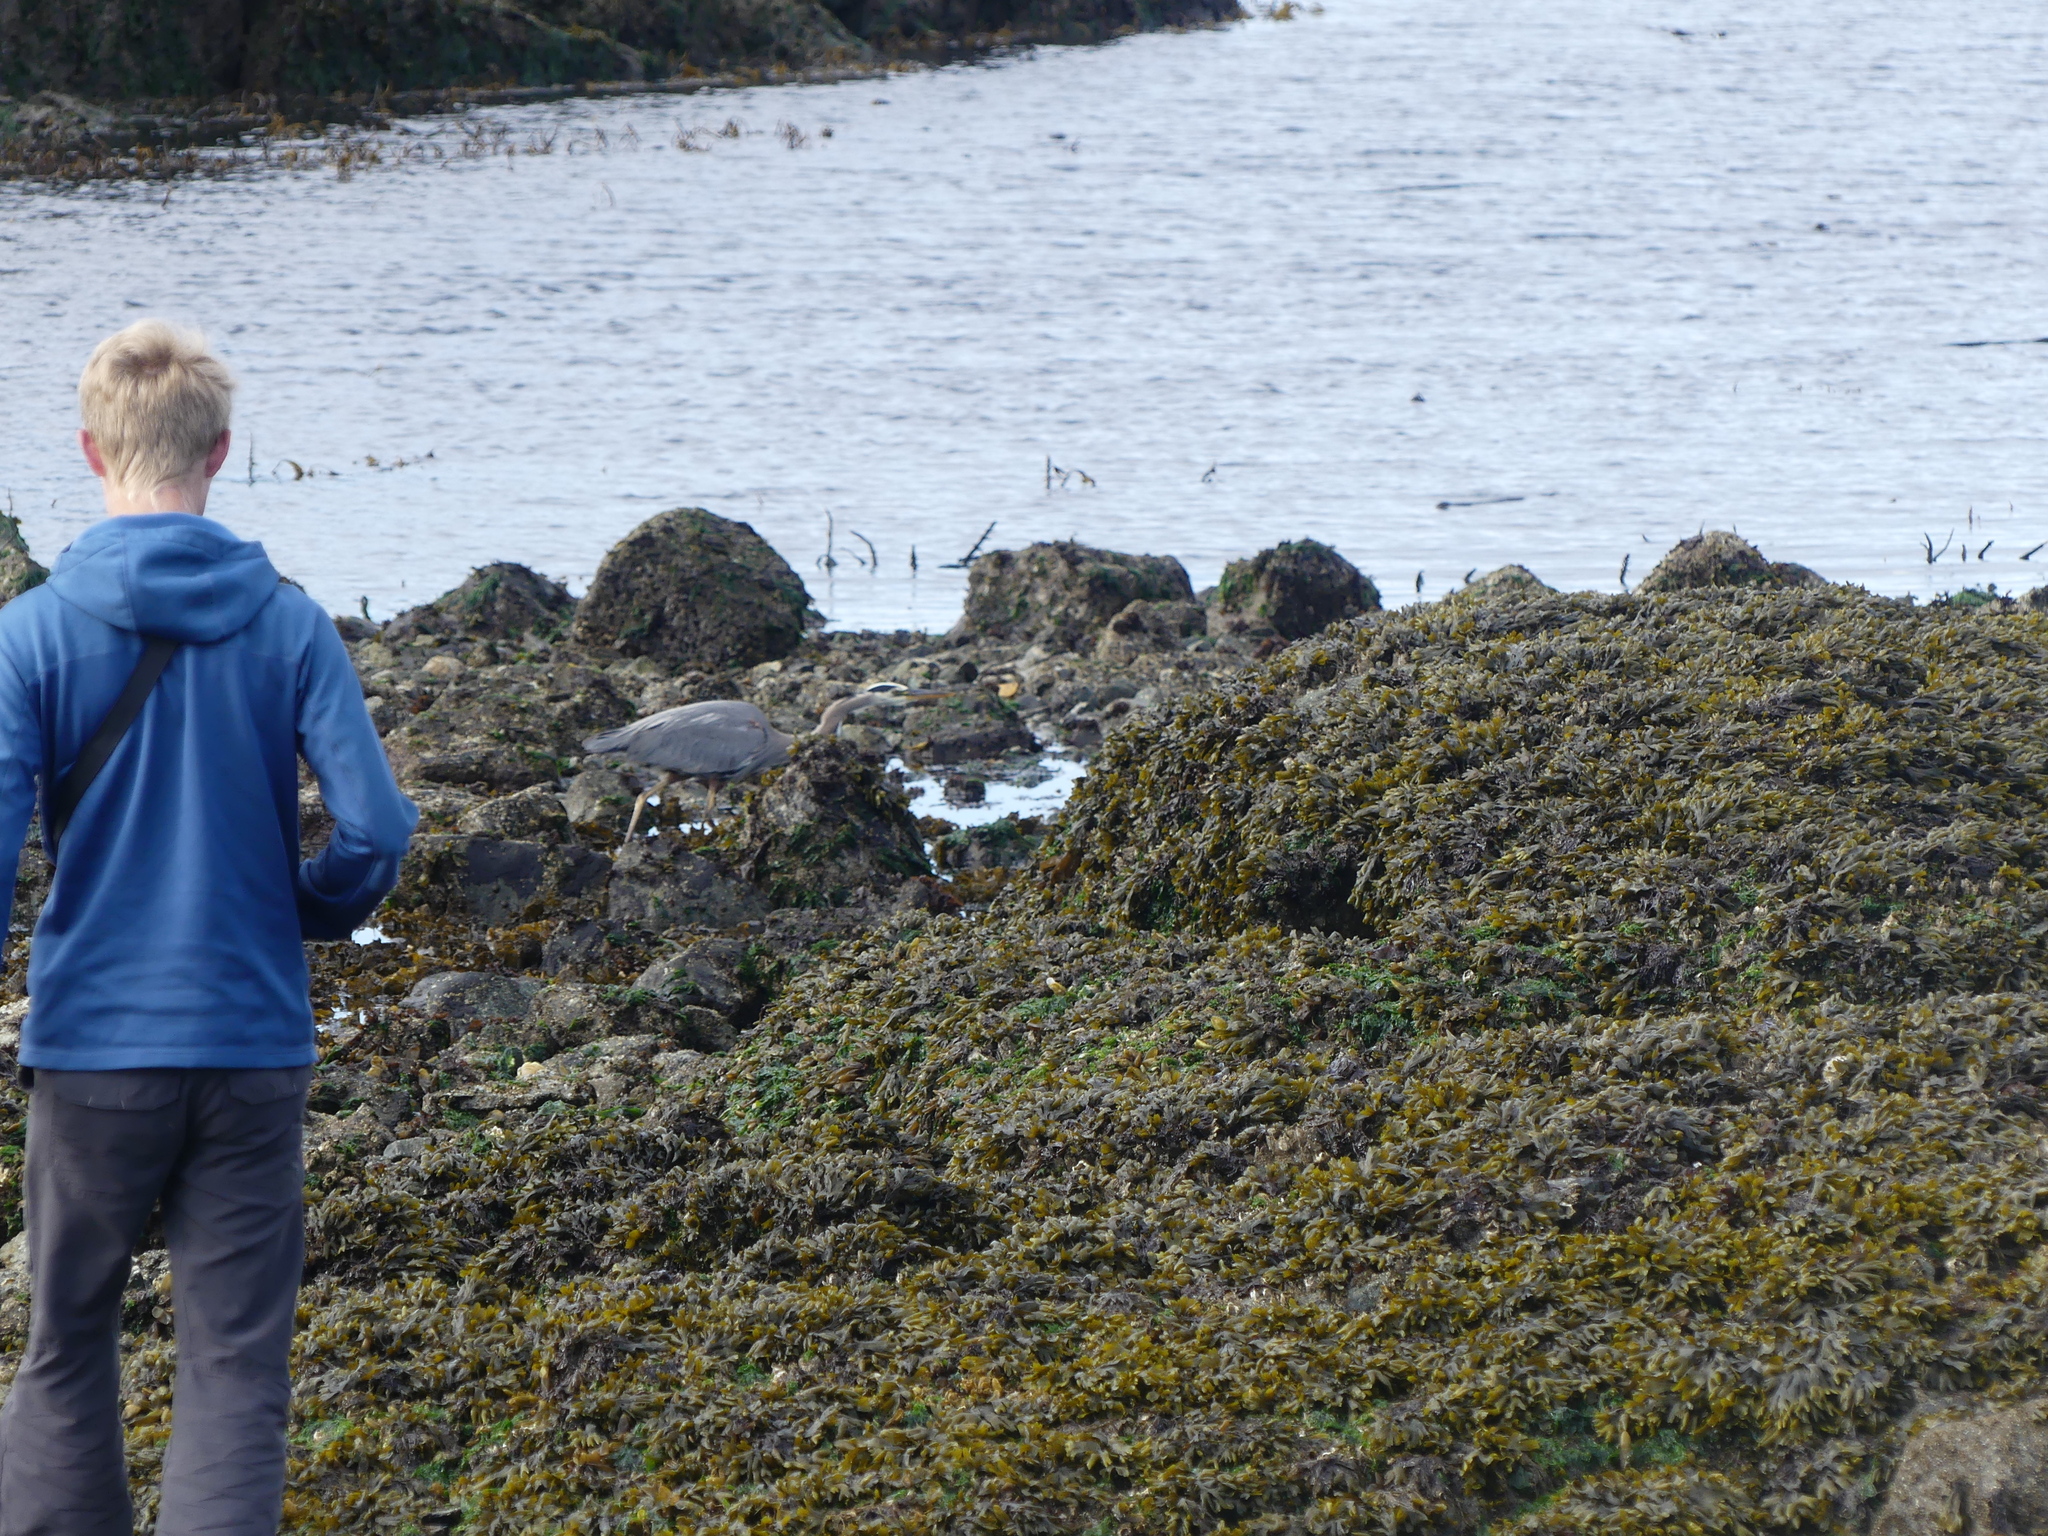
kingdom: Animalia
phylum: Chordata
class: Aves
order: Pelecaniformes
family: Ardeidae
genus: Ardea
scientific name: Ardea herodias
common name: Great blue heron
